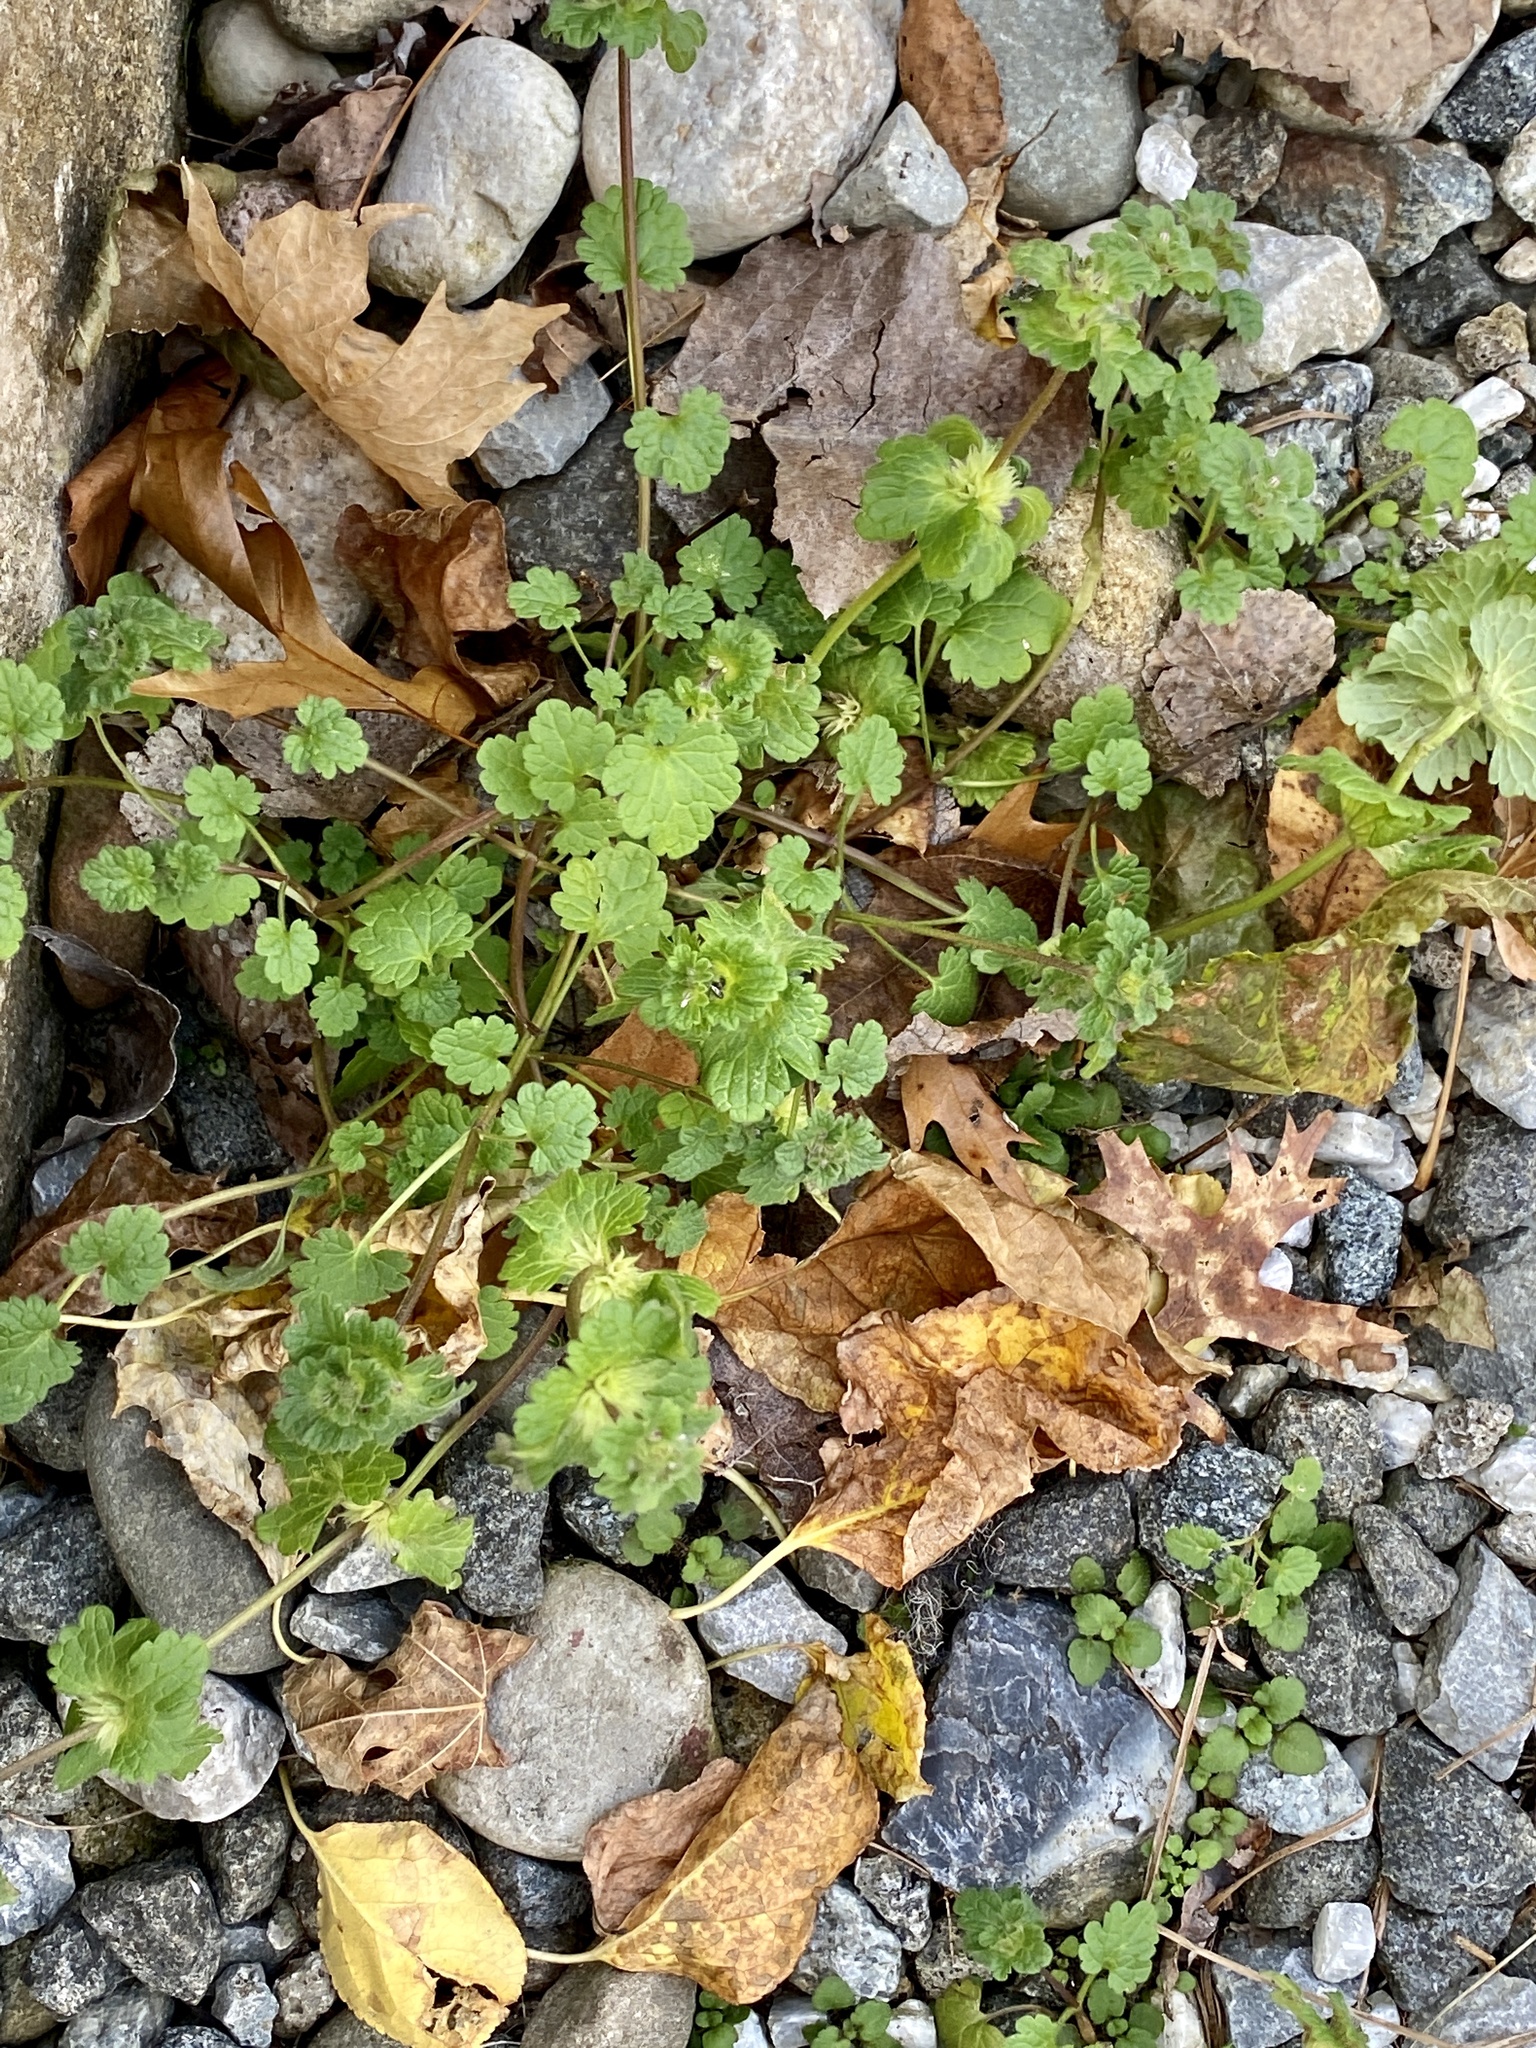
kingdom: Plantae
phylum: Tracheophyta
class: Magnoliopsida
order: Lamiales
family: Lamiaceae
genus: Lamium
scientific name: Lamium amplexicaule
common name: Henbit dead-nettle
